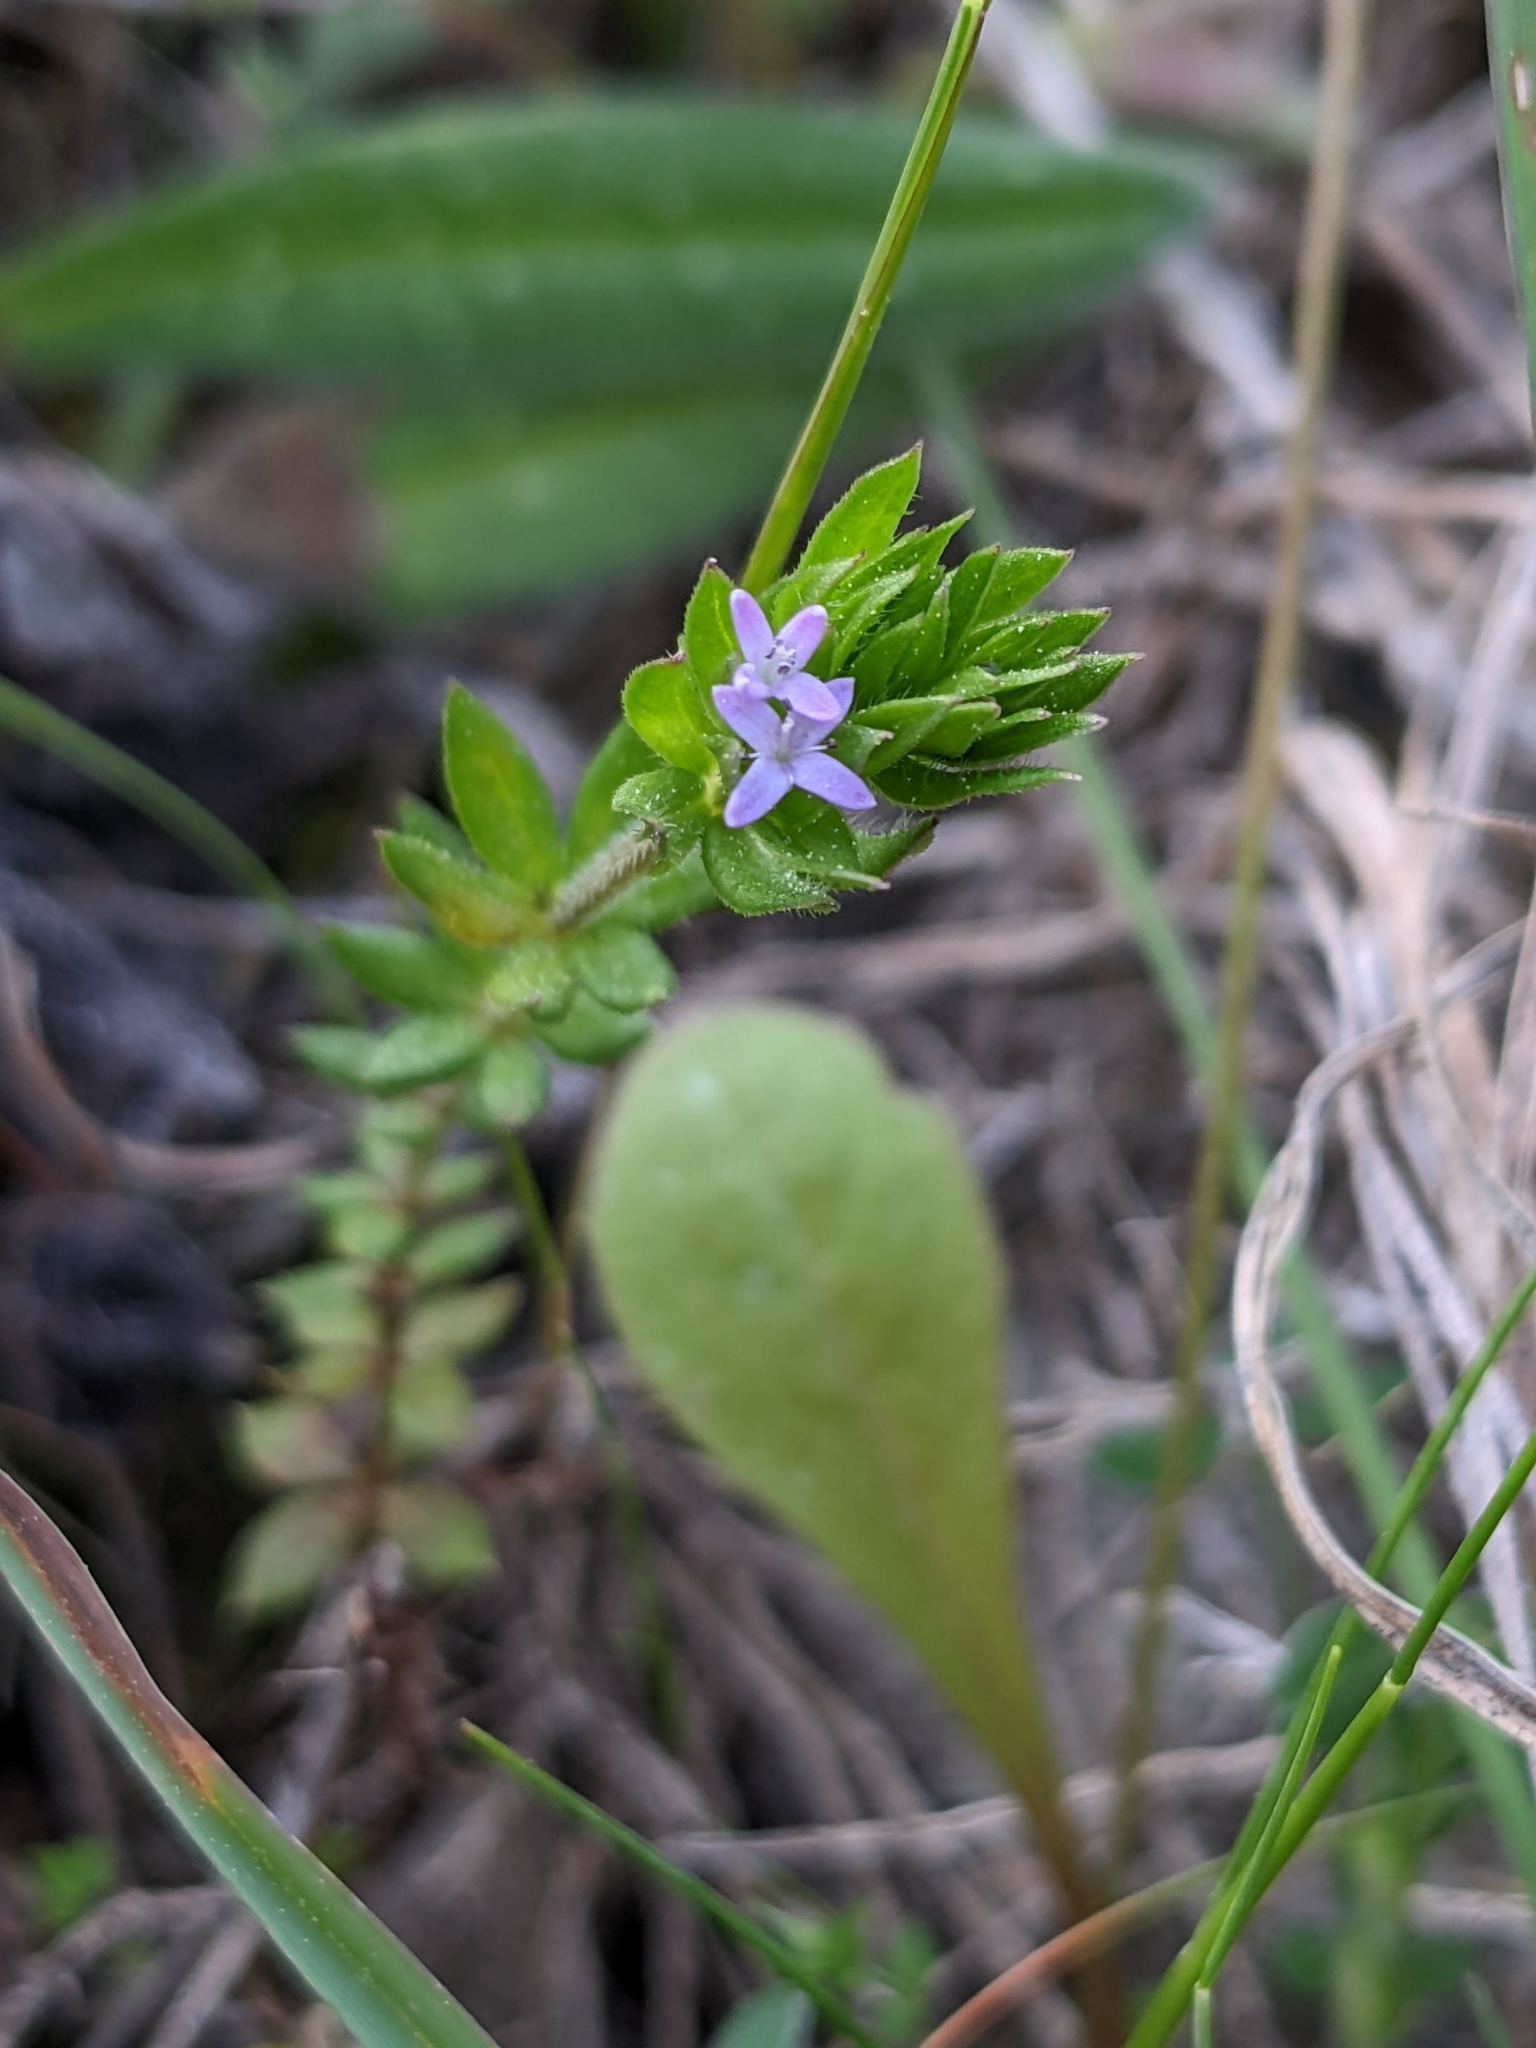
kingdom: Plantae
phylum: Tracheophyta
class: Magnoliopsida
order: Gentianales
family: Rubiaceae
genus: Sherardia
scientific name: Sherardia arvensis
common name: Field madder
